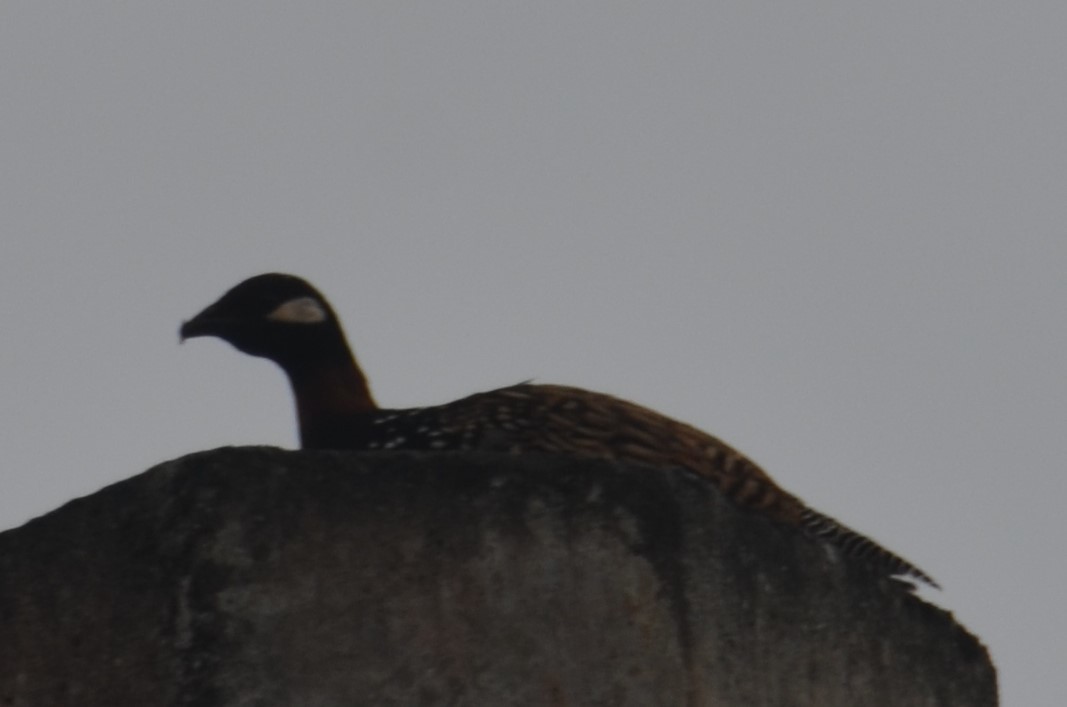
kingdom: Animalia
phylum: Chordata
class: Aves
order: Galliformes
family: Phasianidae
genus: Francolinus
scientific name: Francolinus francolinus
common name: Black francolin
